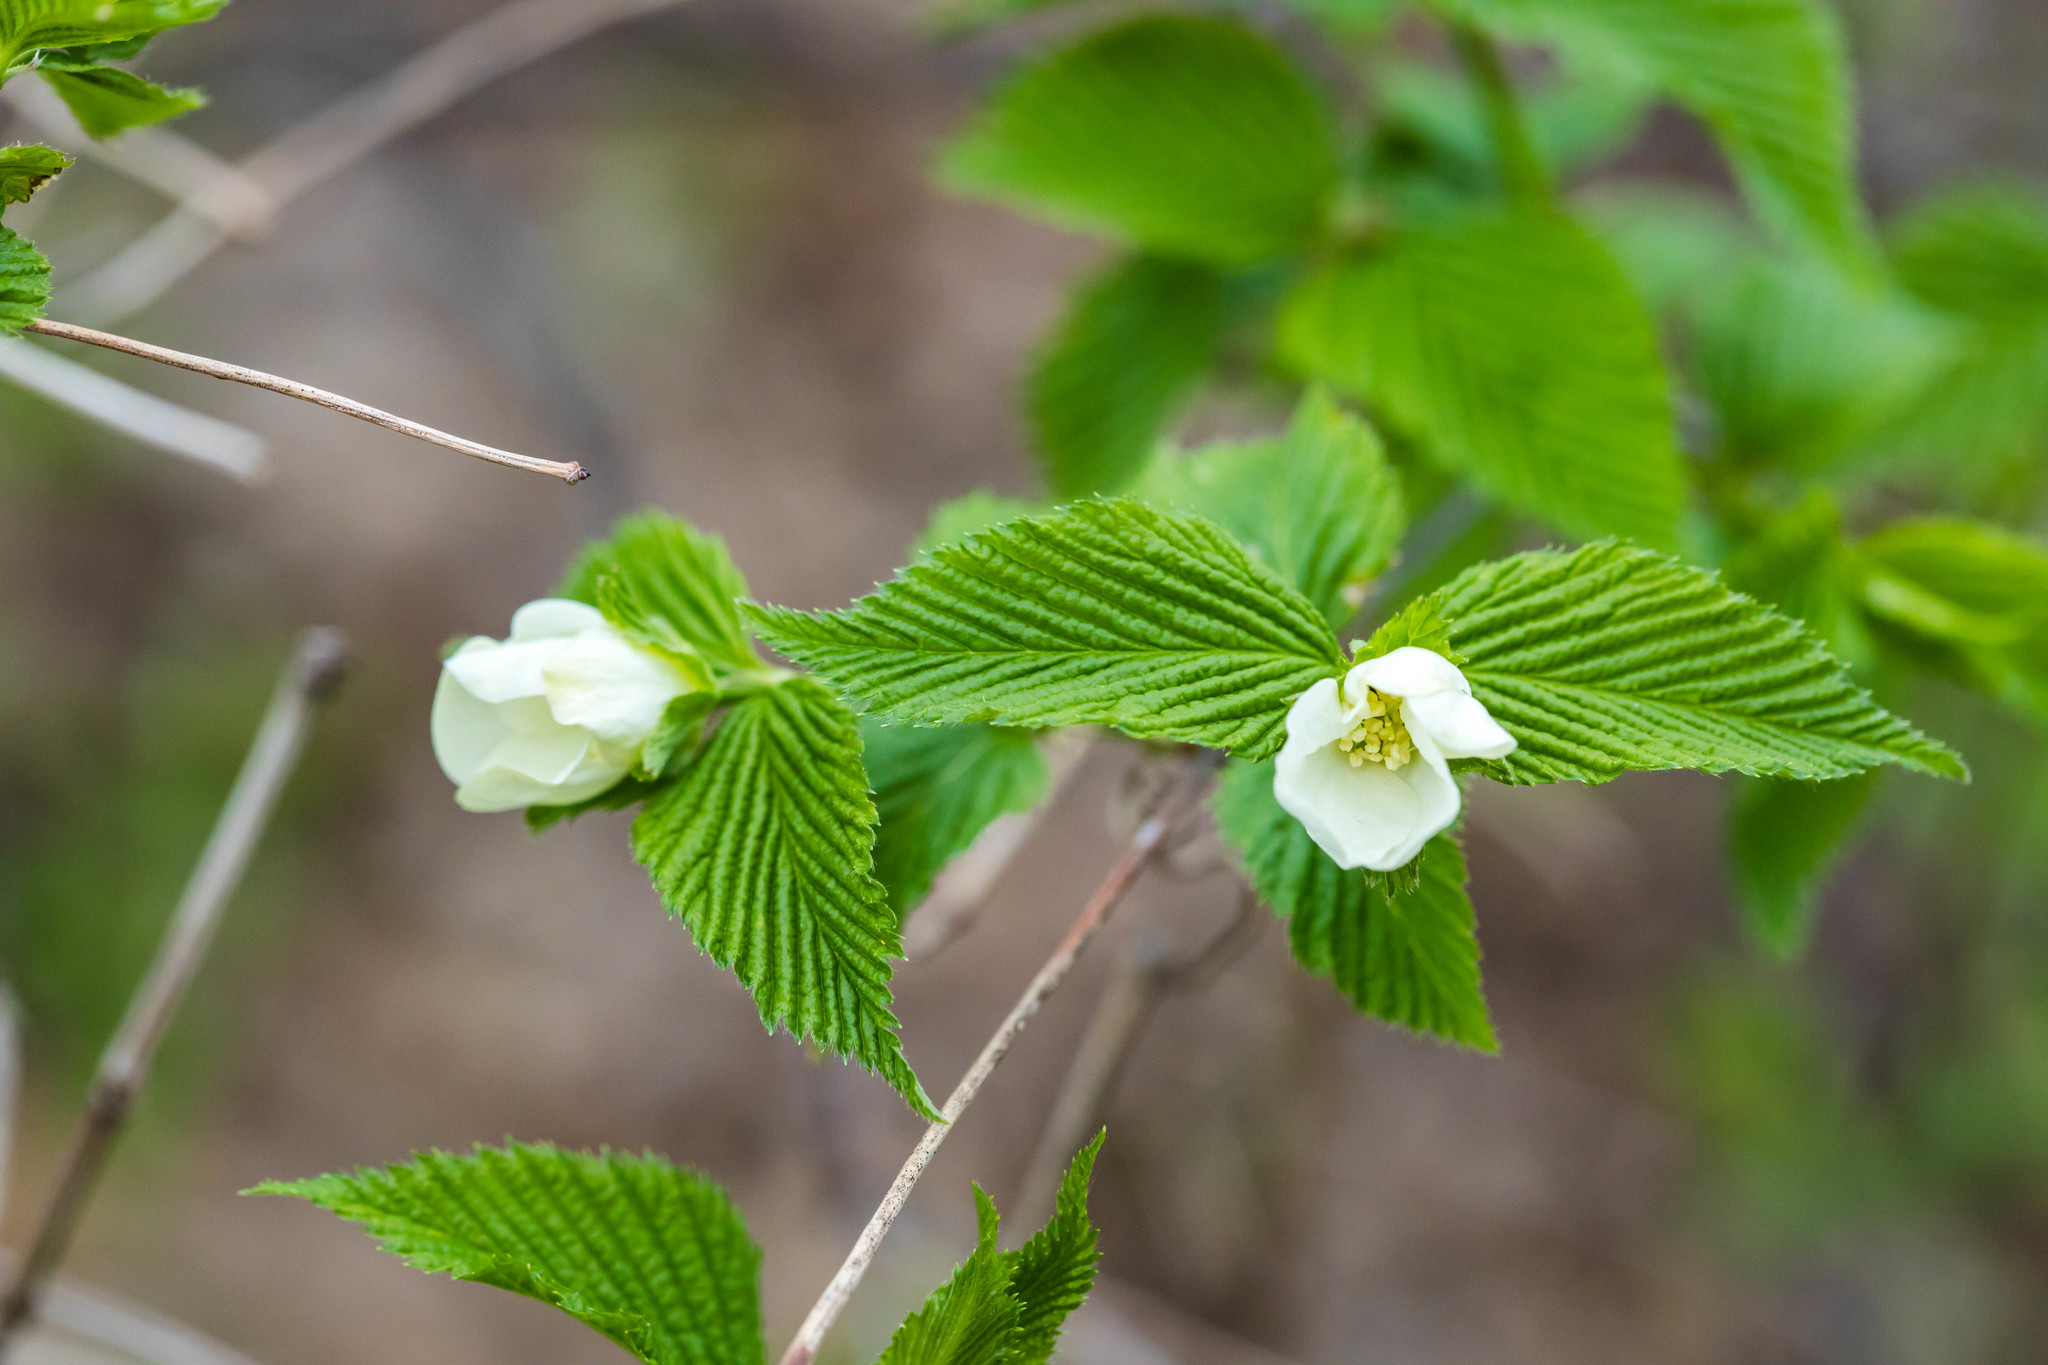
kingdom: Plantae
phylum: Tracheophyta
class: Magnoliopsida
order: Rosales
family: Rosaceae
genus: Rhodotypos
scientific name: Rhodotypos scandens
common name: Jetbead
